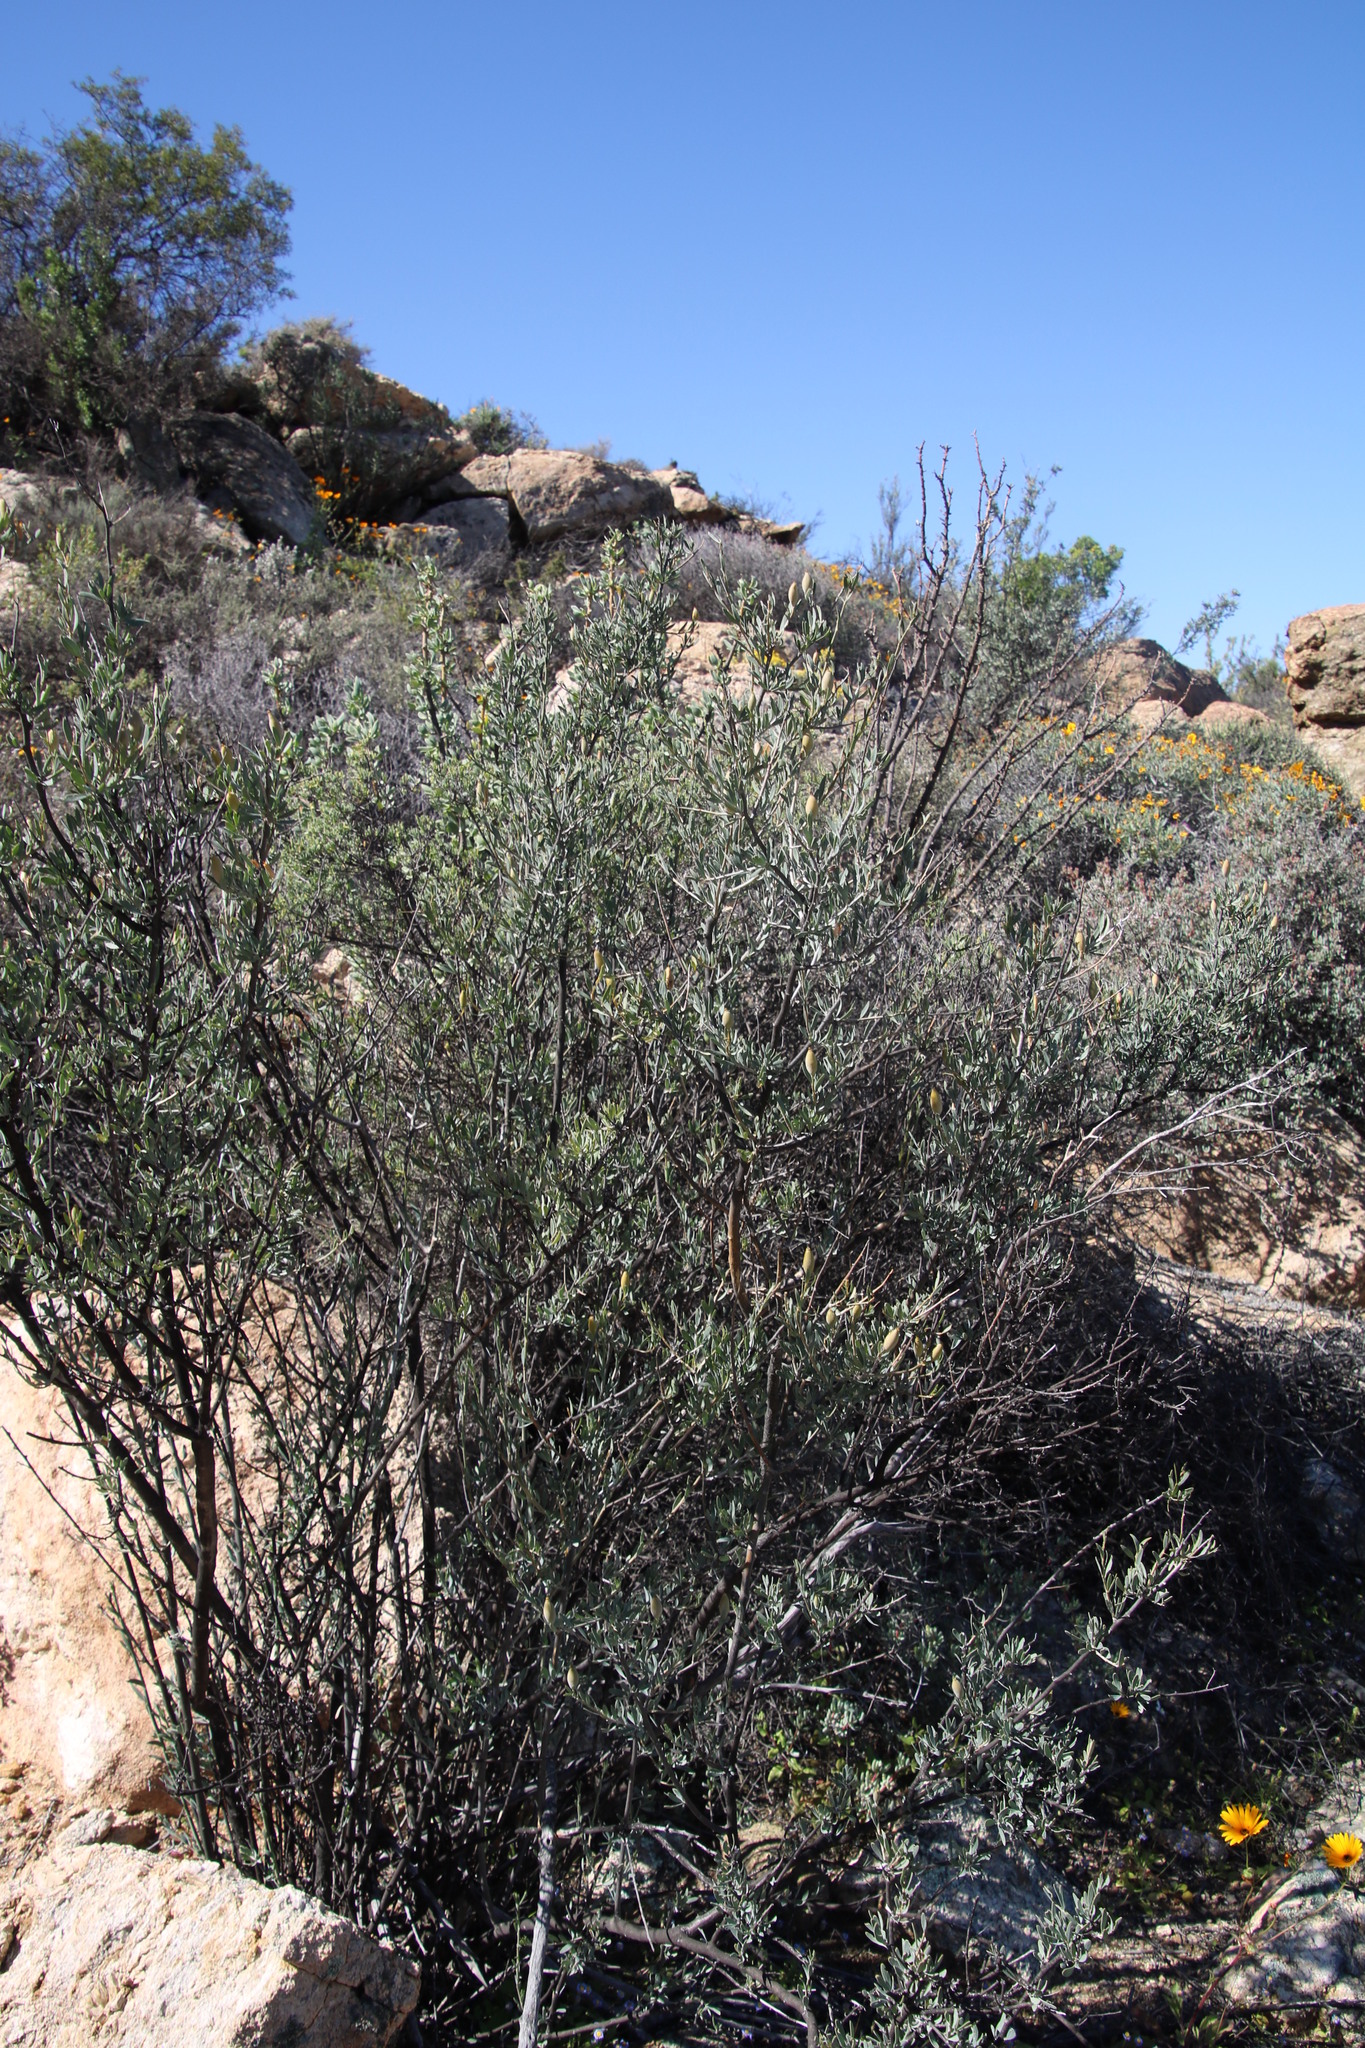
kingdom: Plantae
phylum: Tracheophyta
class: Magnoliopsida
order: Solanales
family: Montiniaceae
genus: Montinia
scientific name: Montinia caryophyllacea
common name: Wild clove-bush
